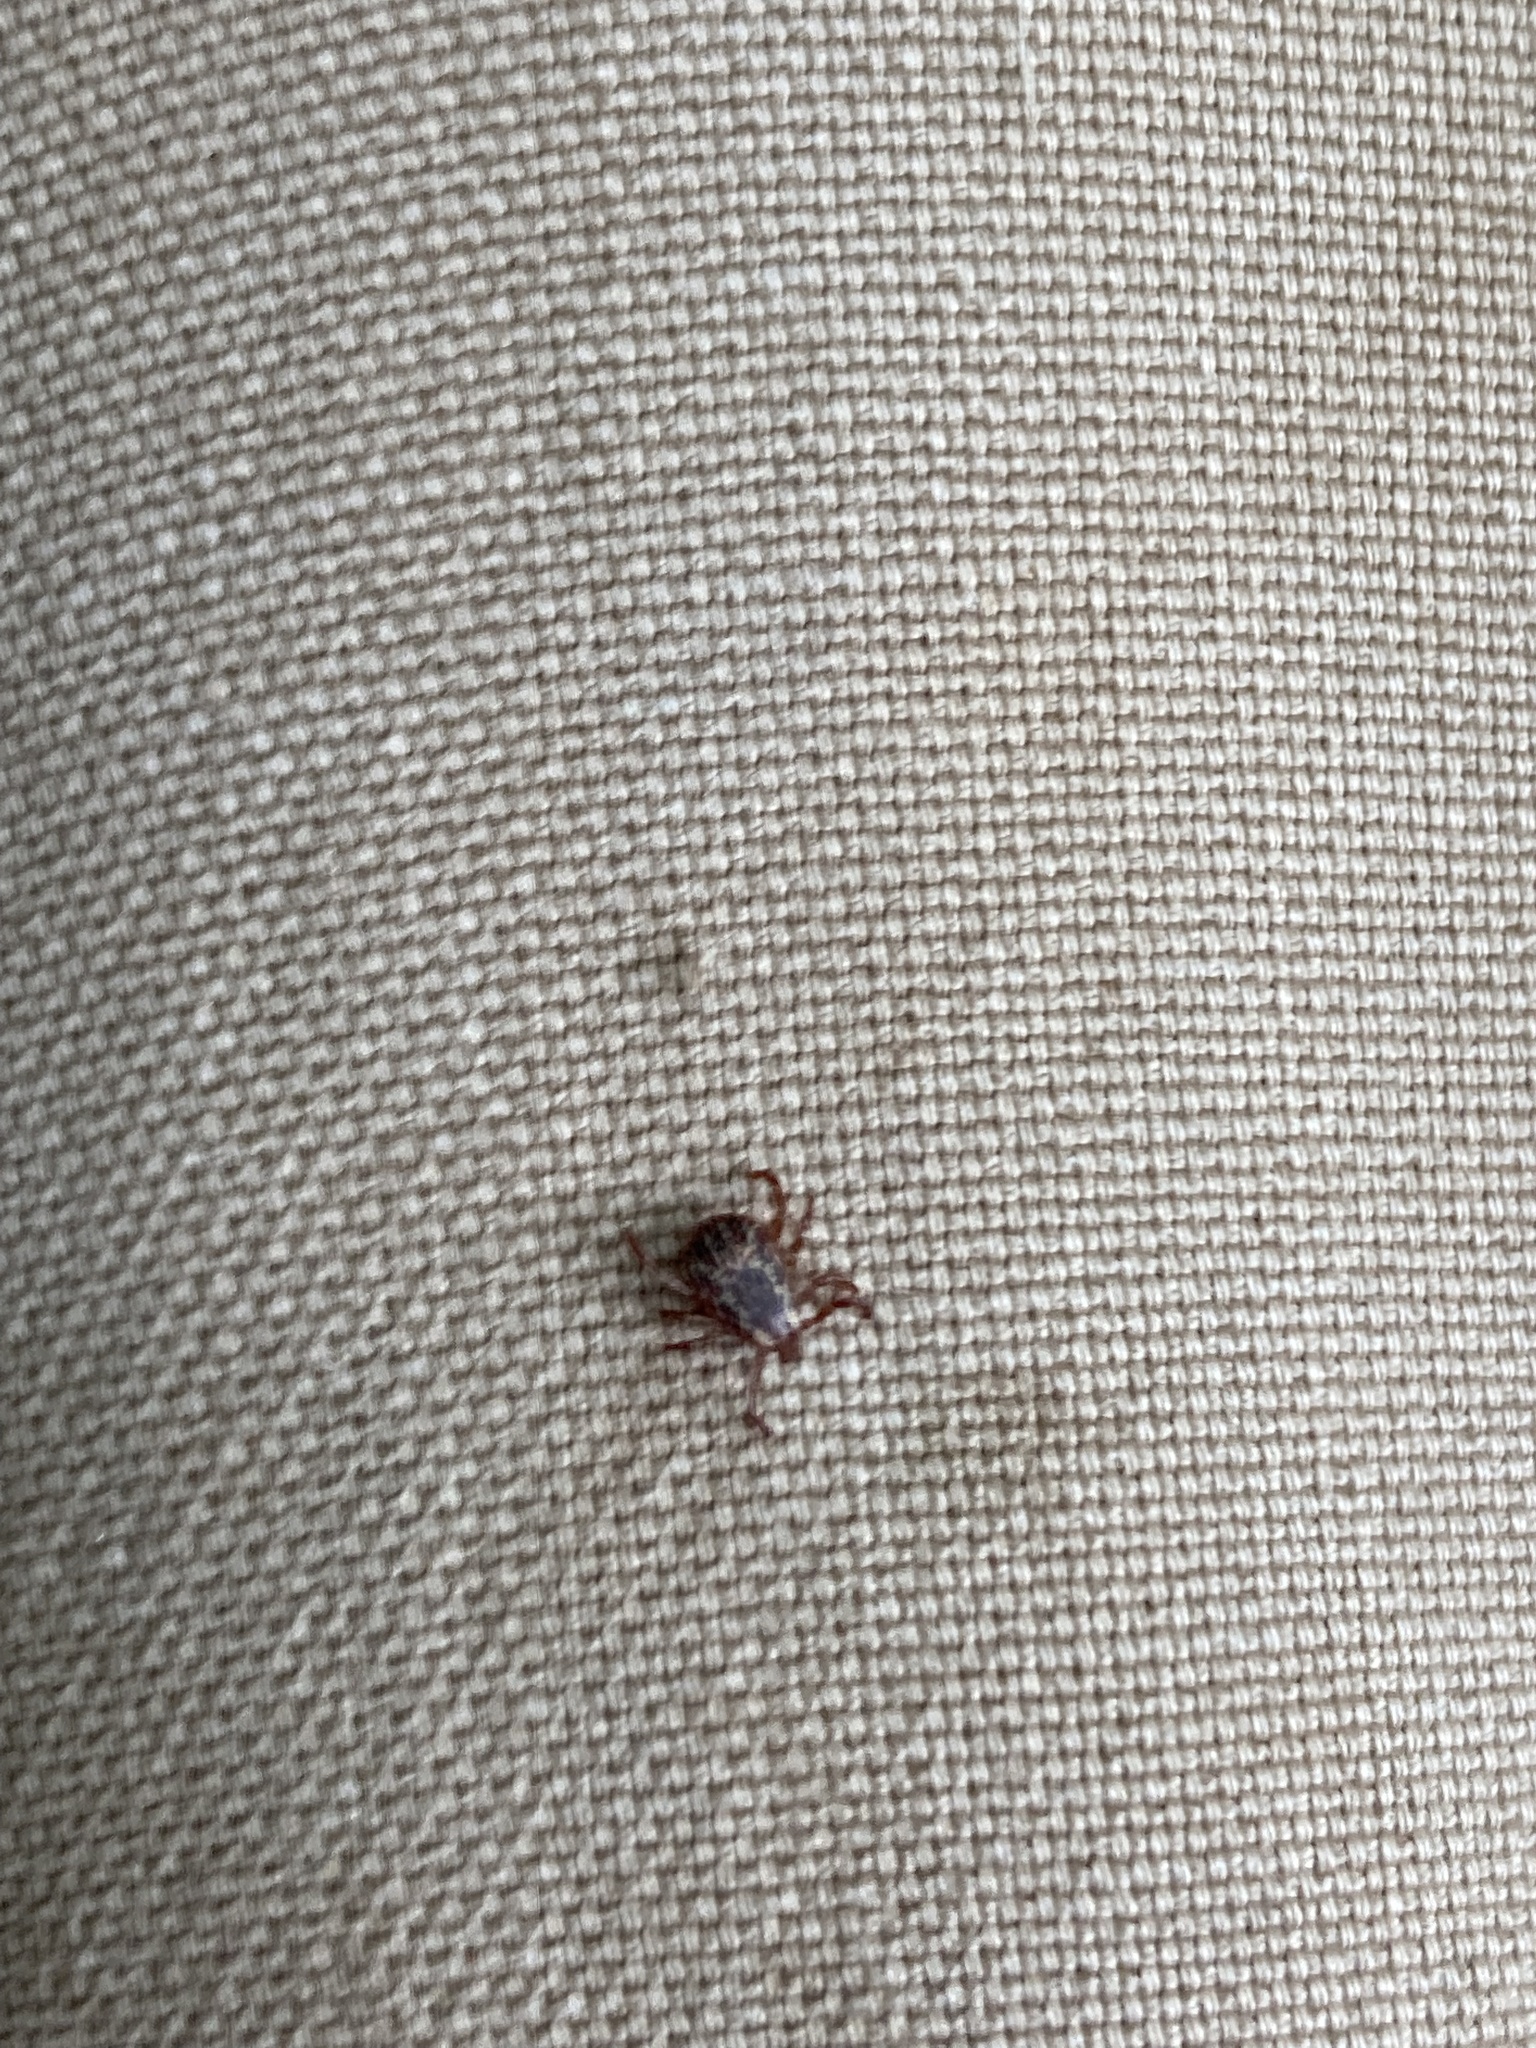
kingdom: Animalia
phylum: Arthropoda
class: Arachnida
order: Ixodida
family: Ixodidae
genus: Dermacentor
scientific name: Dermacentor variabilis
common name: American dog tick
